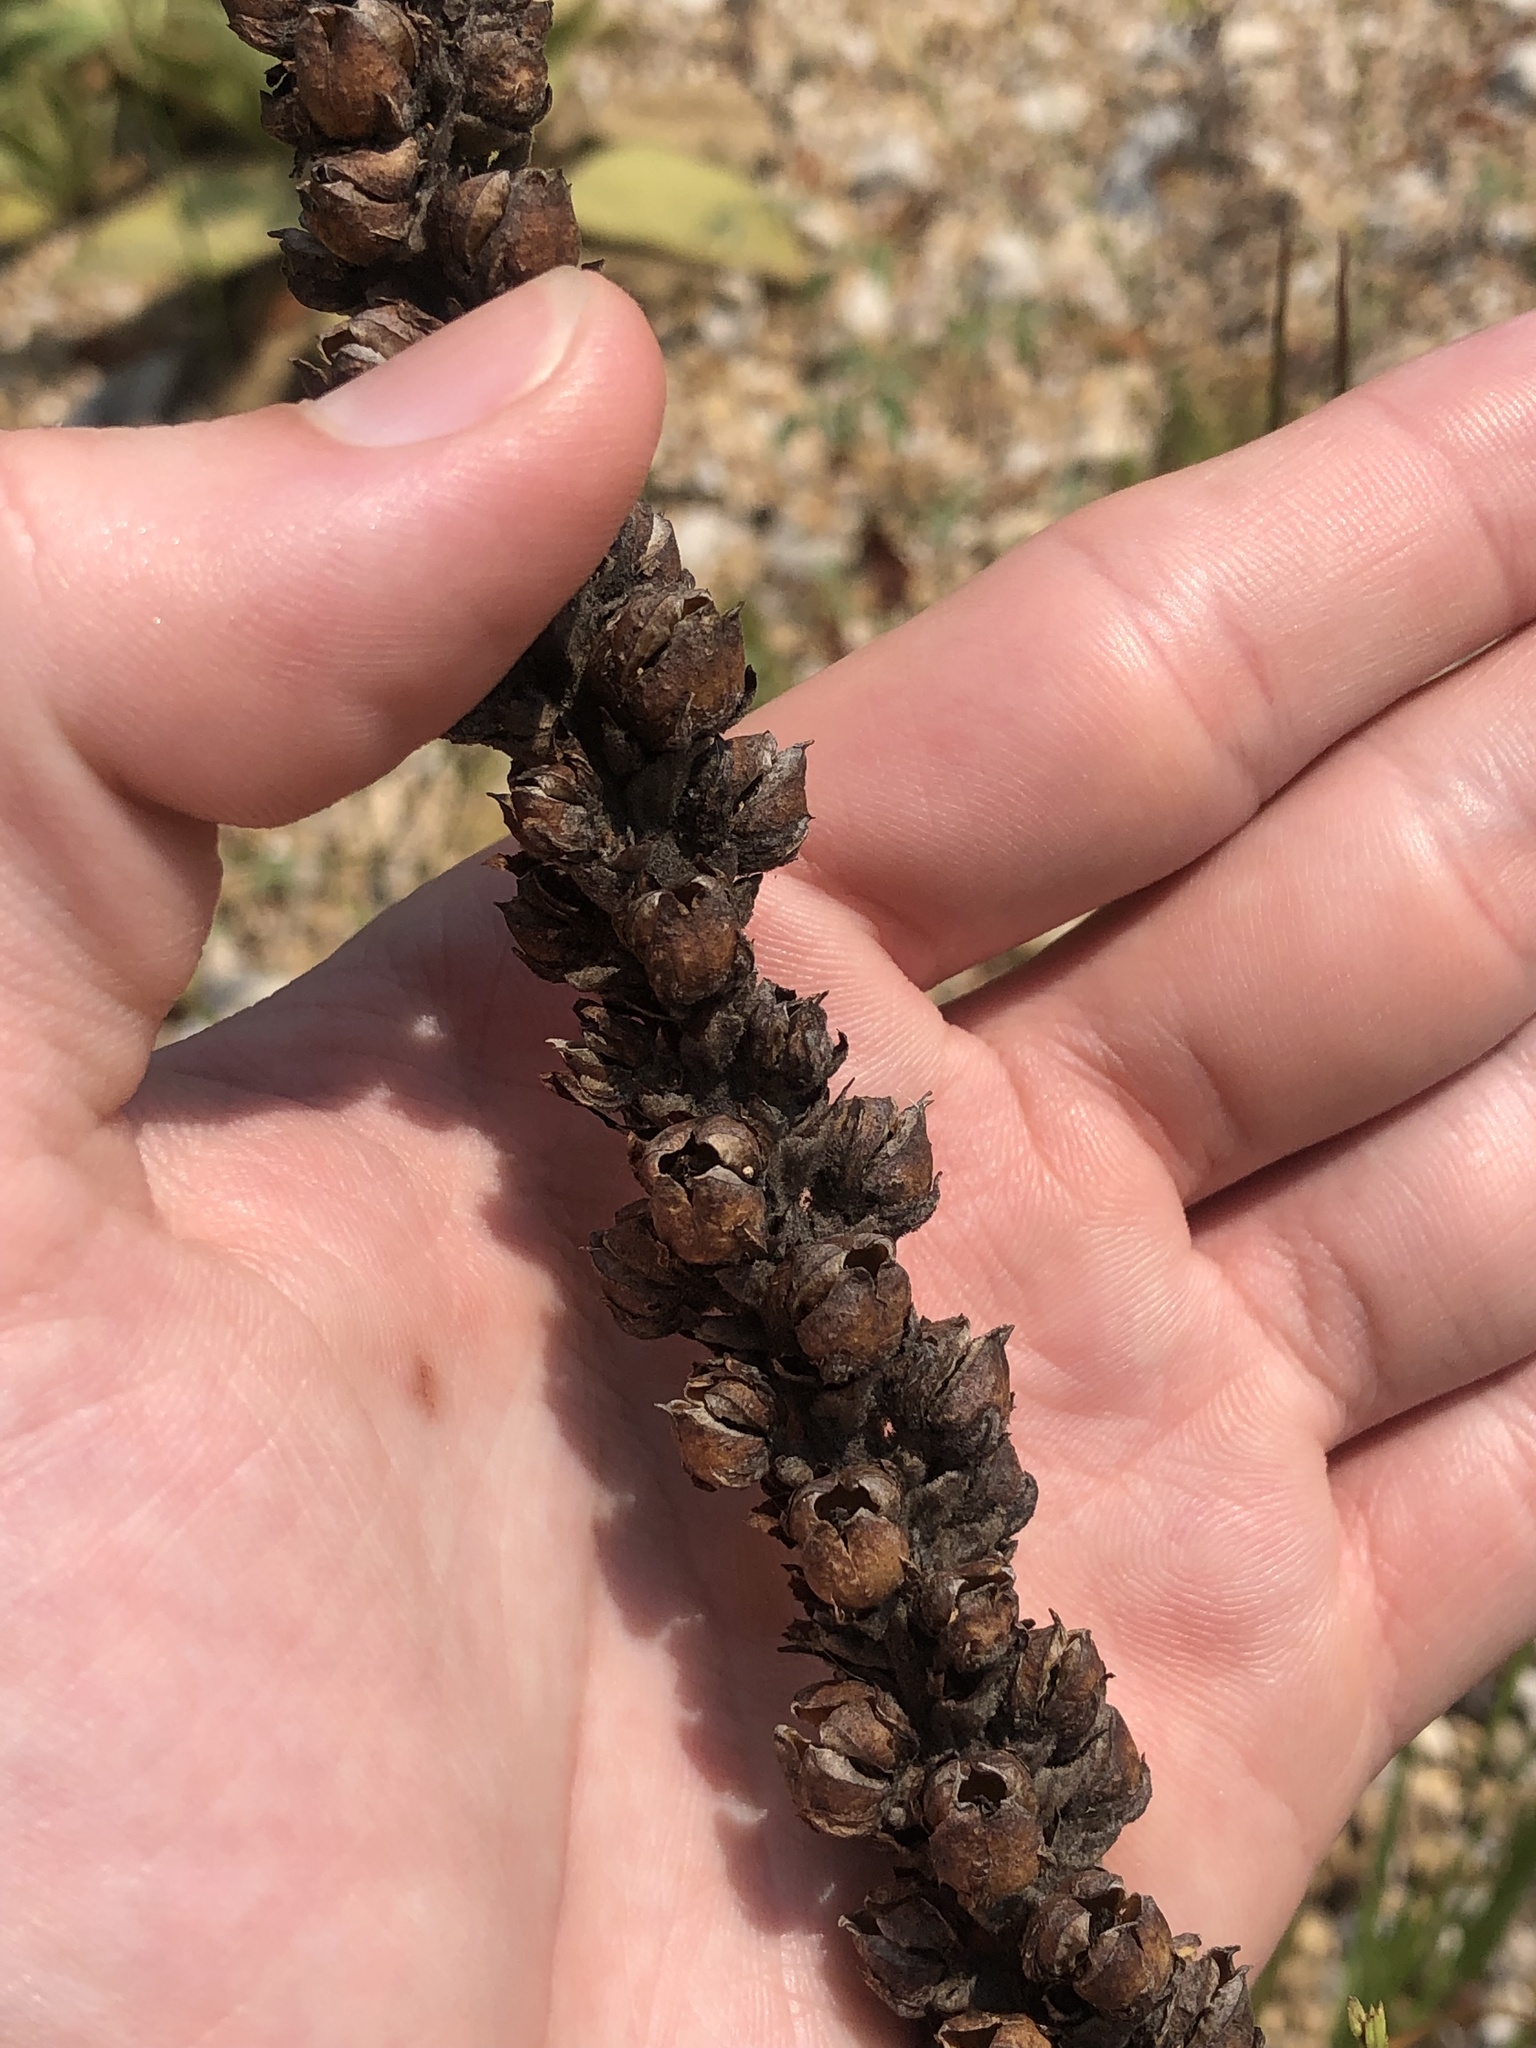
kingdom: Plantae
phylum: Tracheophyta
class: Magnoliopsida
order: Lamiales
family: Scrophulariaceae
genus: Verbascum
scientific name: Verbascum thapsus
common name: Common mullein
